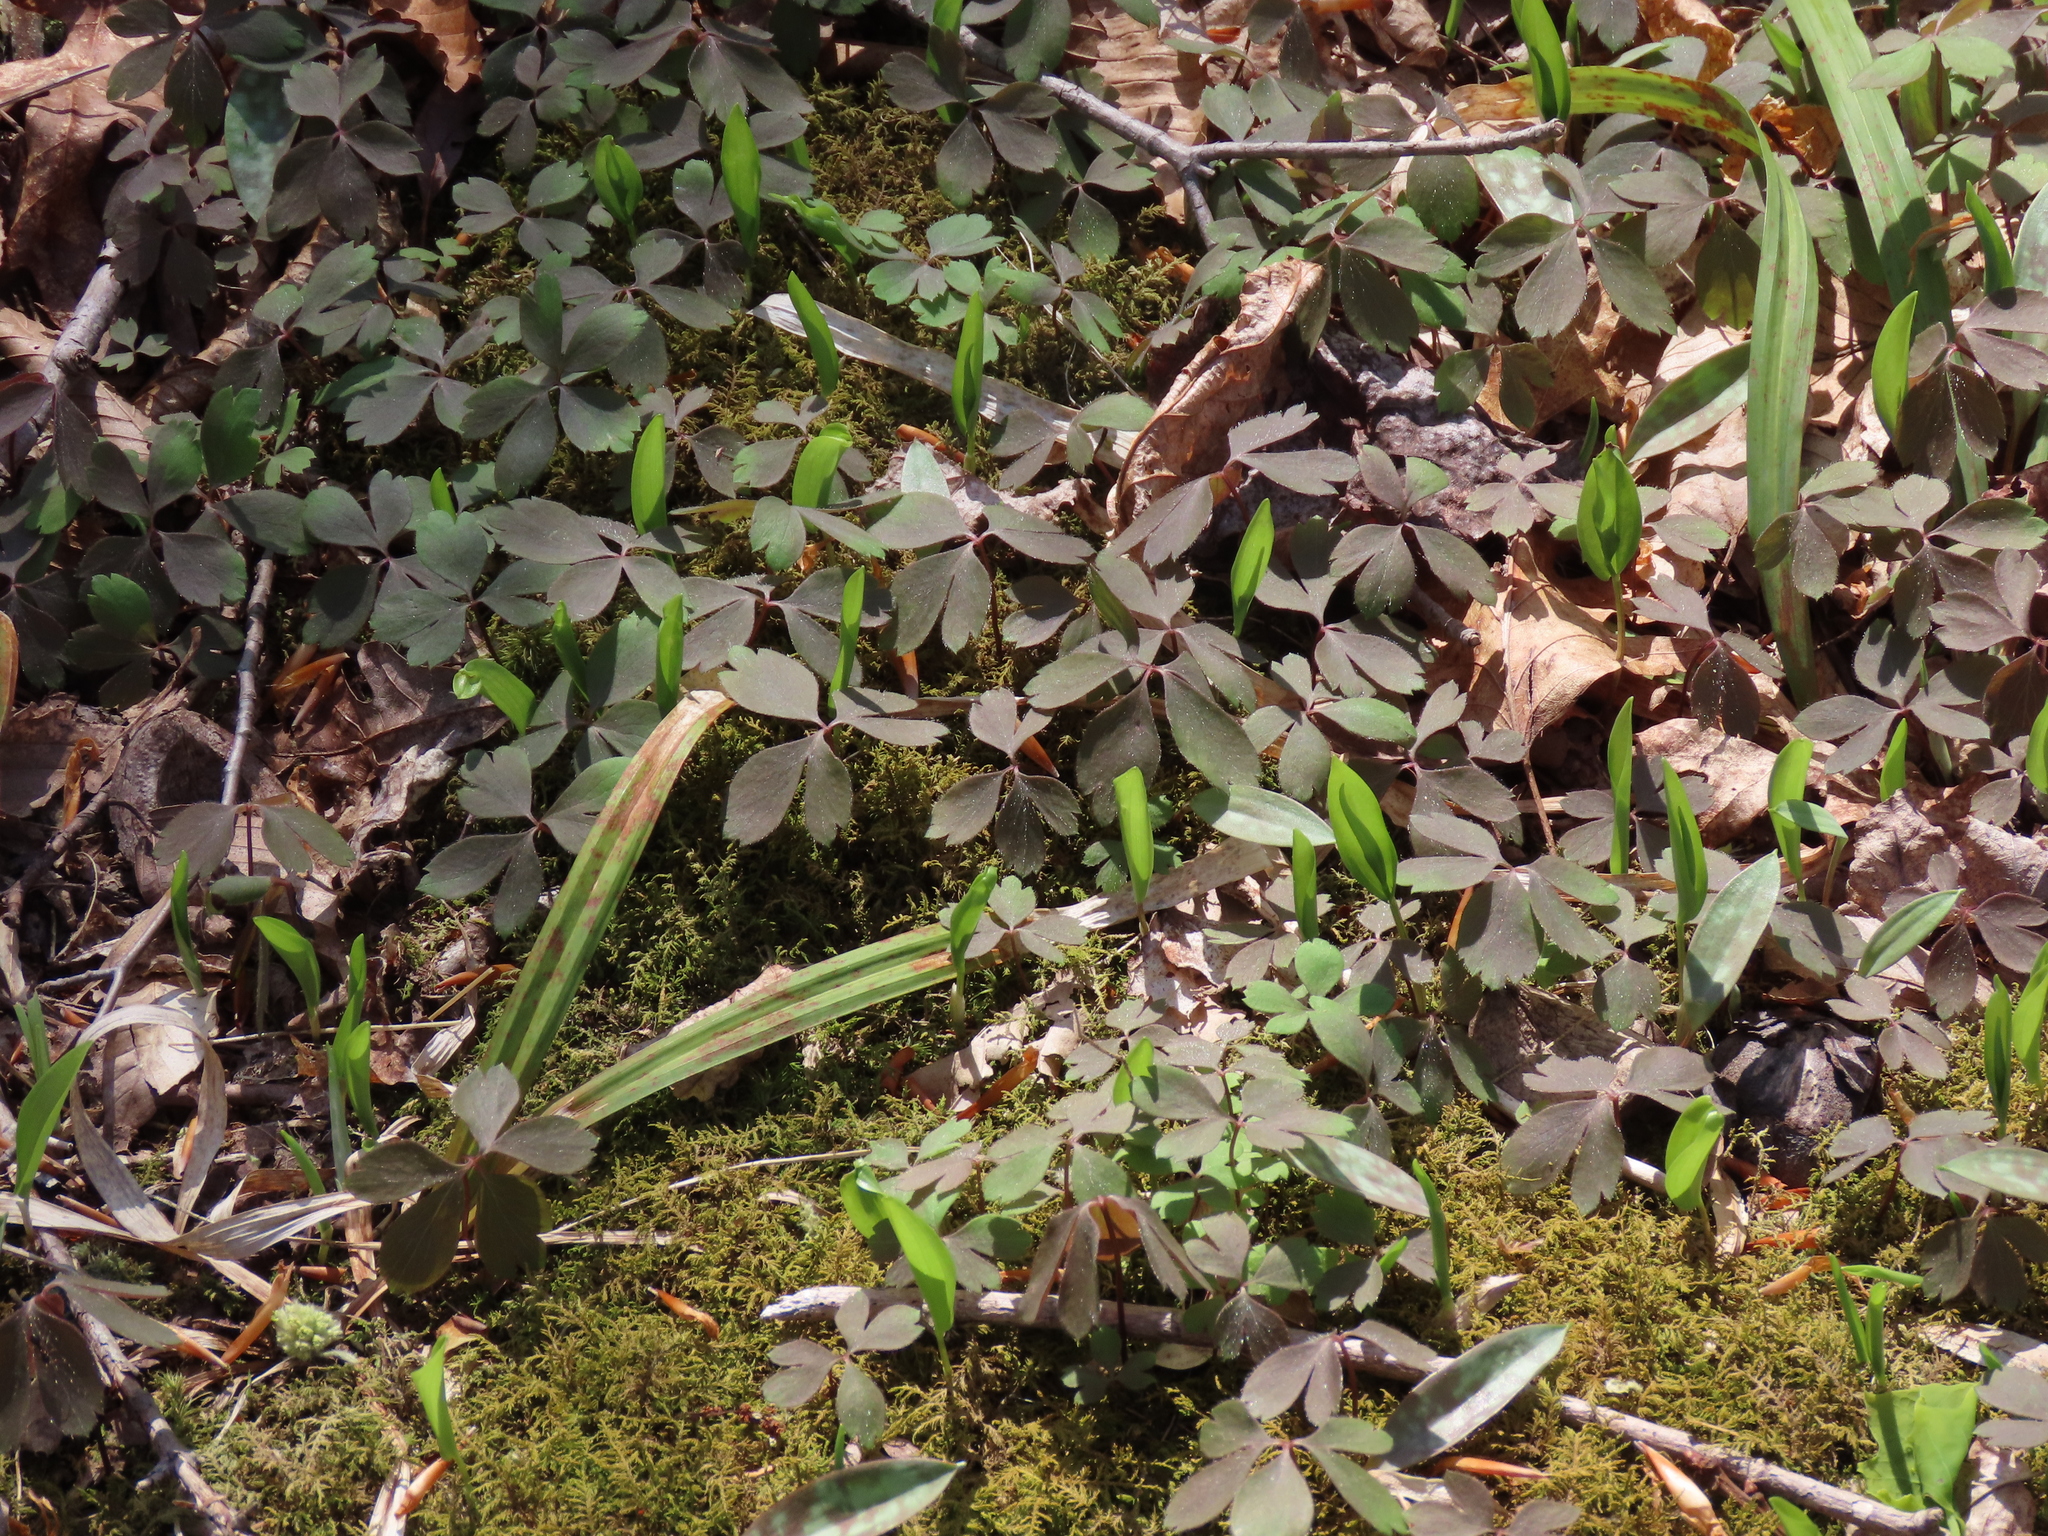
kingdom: Plantae
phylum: Tracheophyta
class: Magnoliopsida
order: Ranunculales
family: Ranunculaceae
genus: Anemone
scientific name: Anemone quinquefolia
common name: Wood anemone
